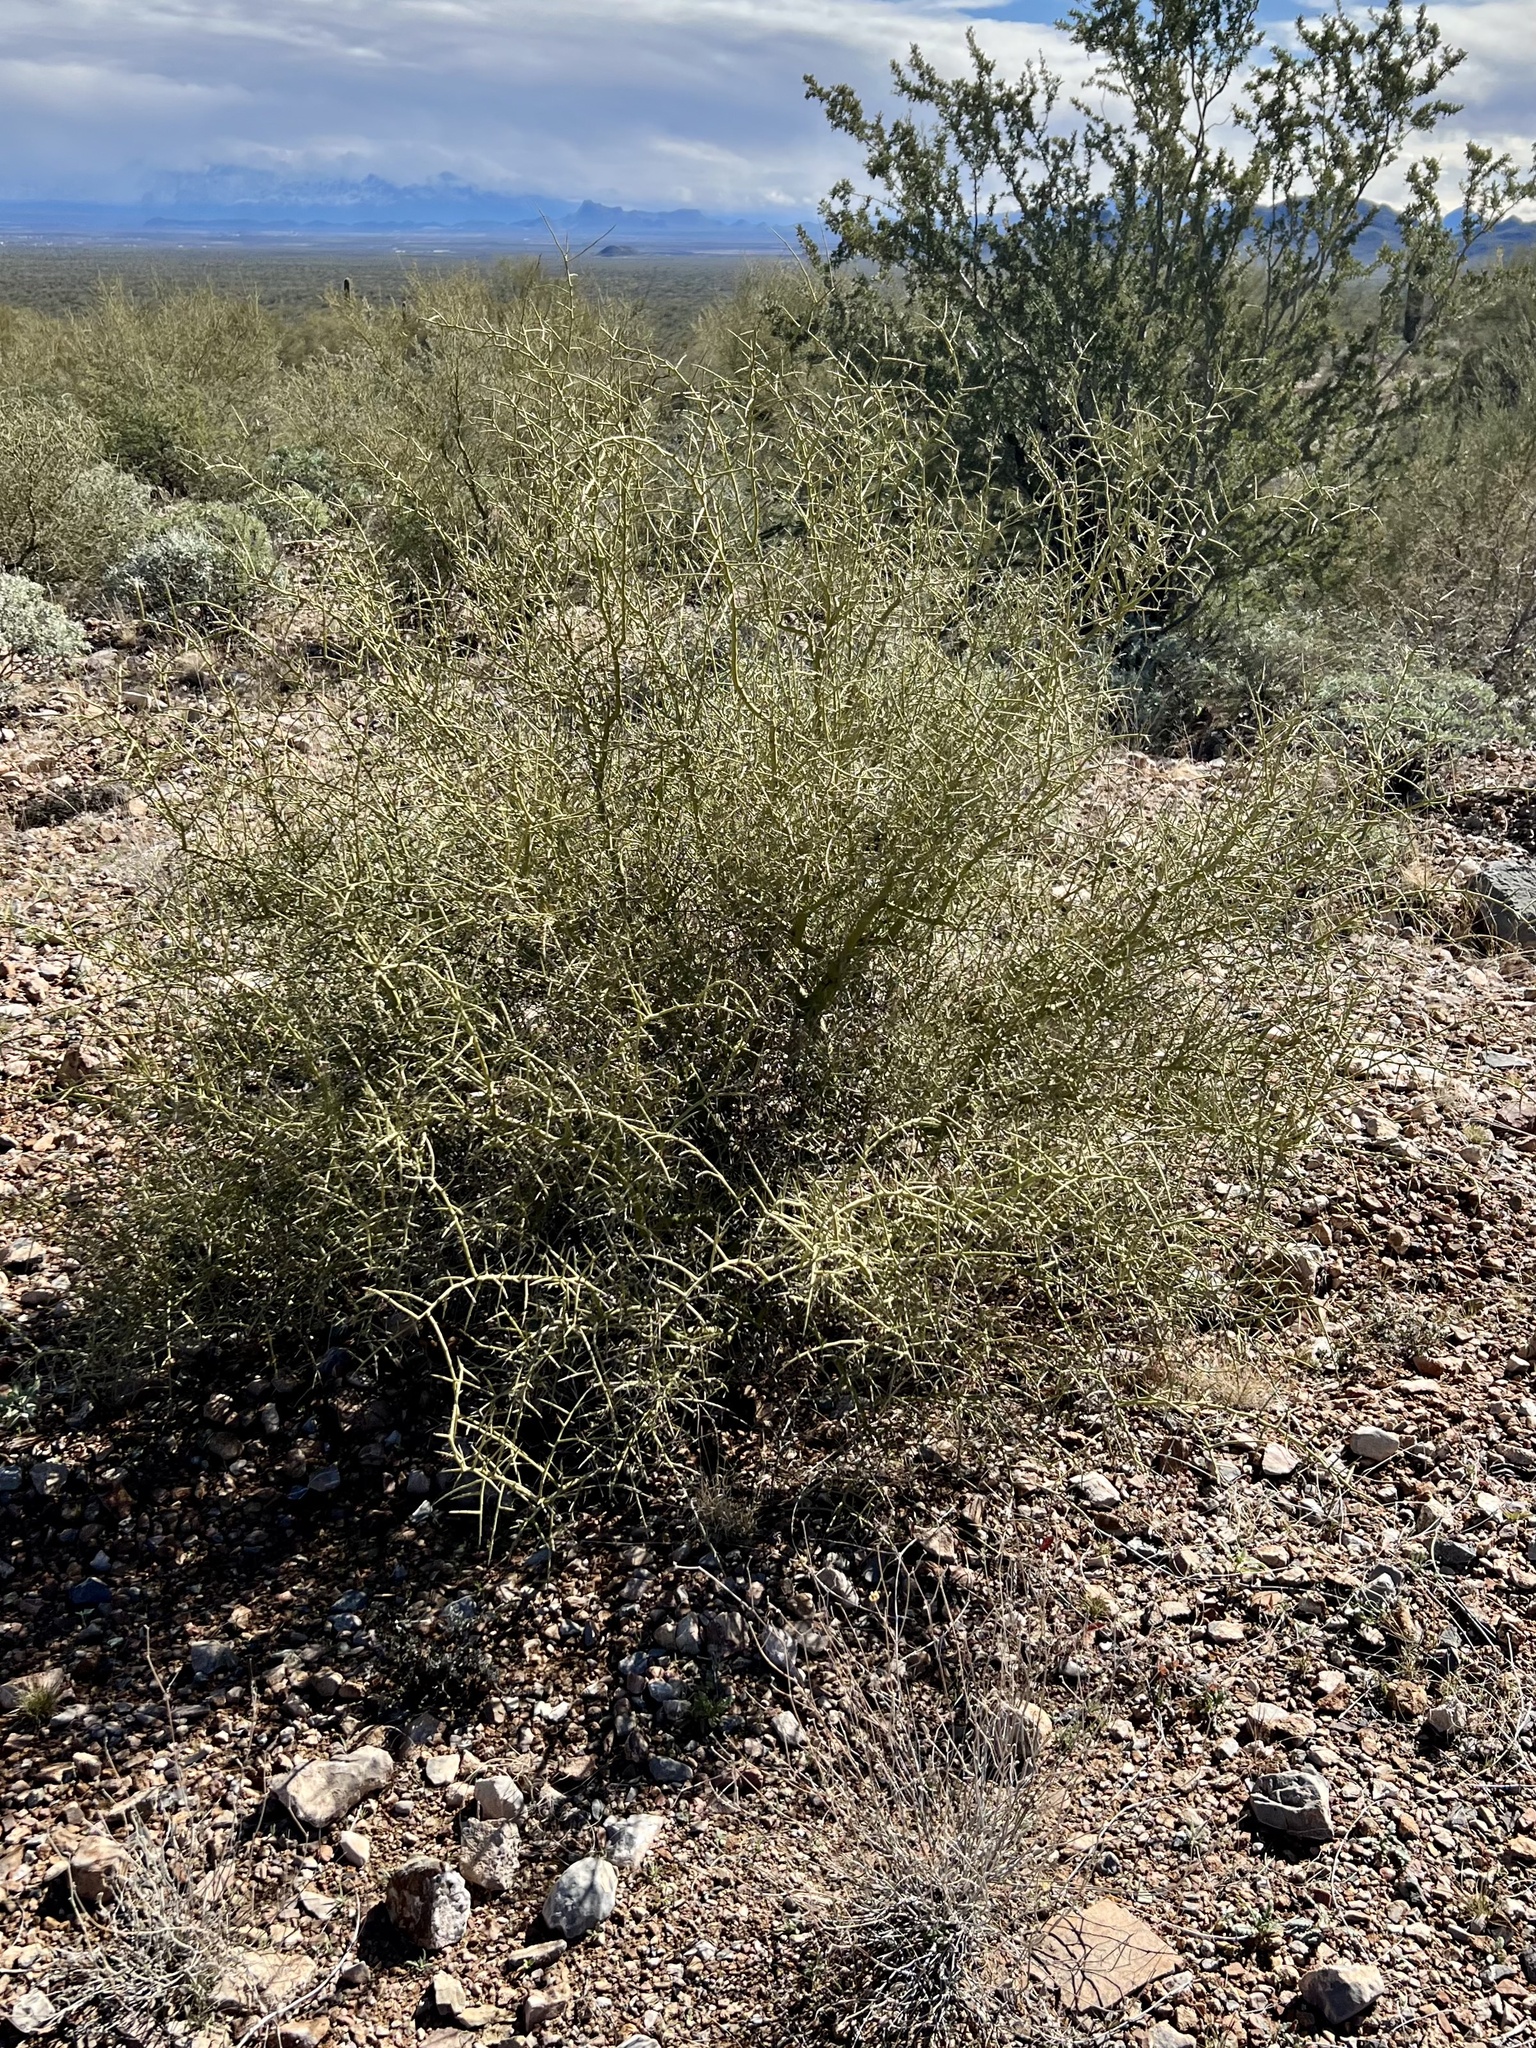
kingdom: Plantae
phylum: Tracheophyta
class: Magnoliopsida
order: Fabales
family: Fabaceae
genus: Parkinsonia
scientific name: Parkinsonia microphylla
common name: Yellow paloverde
